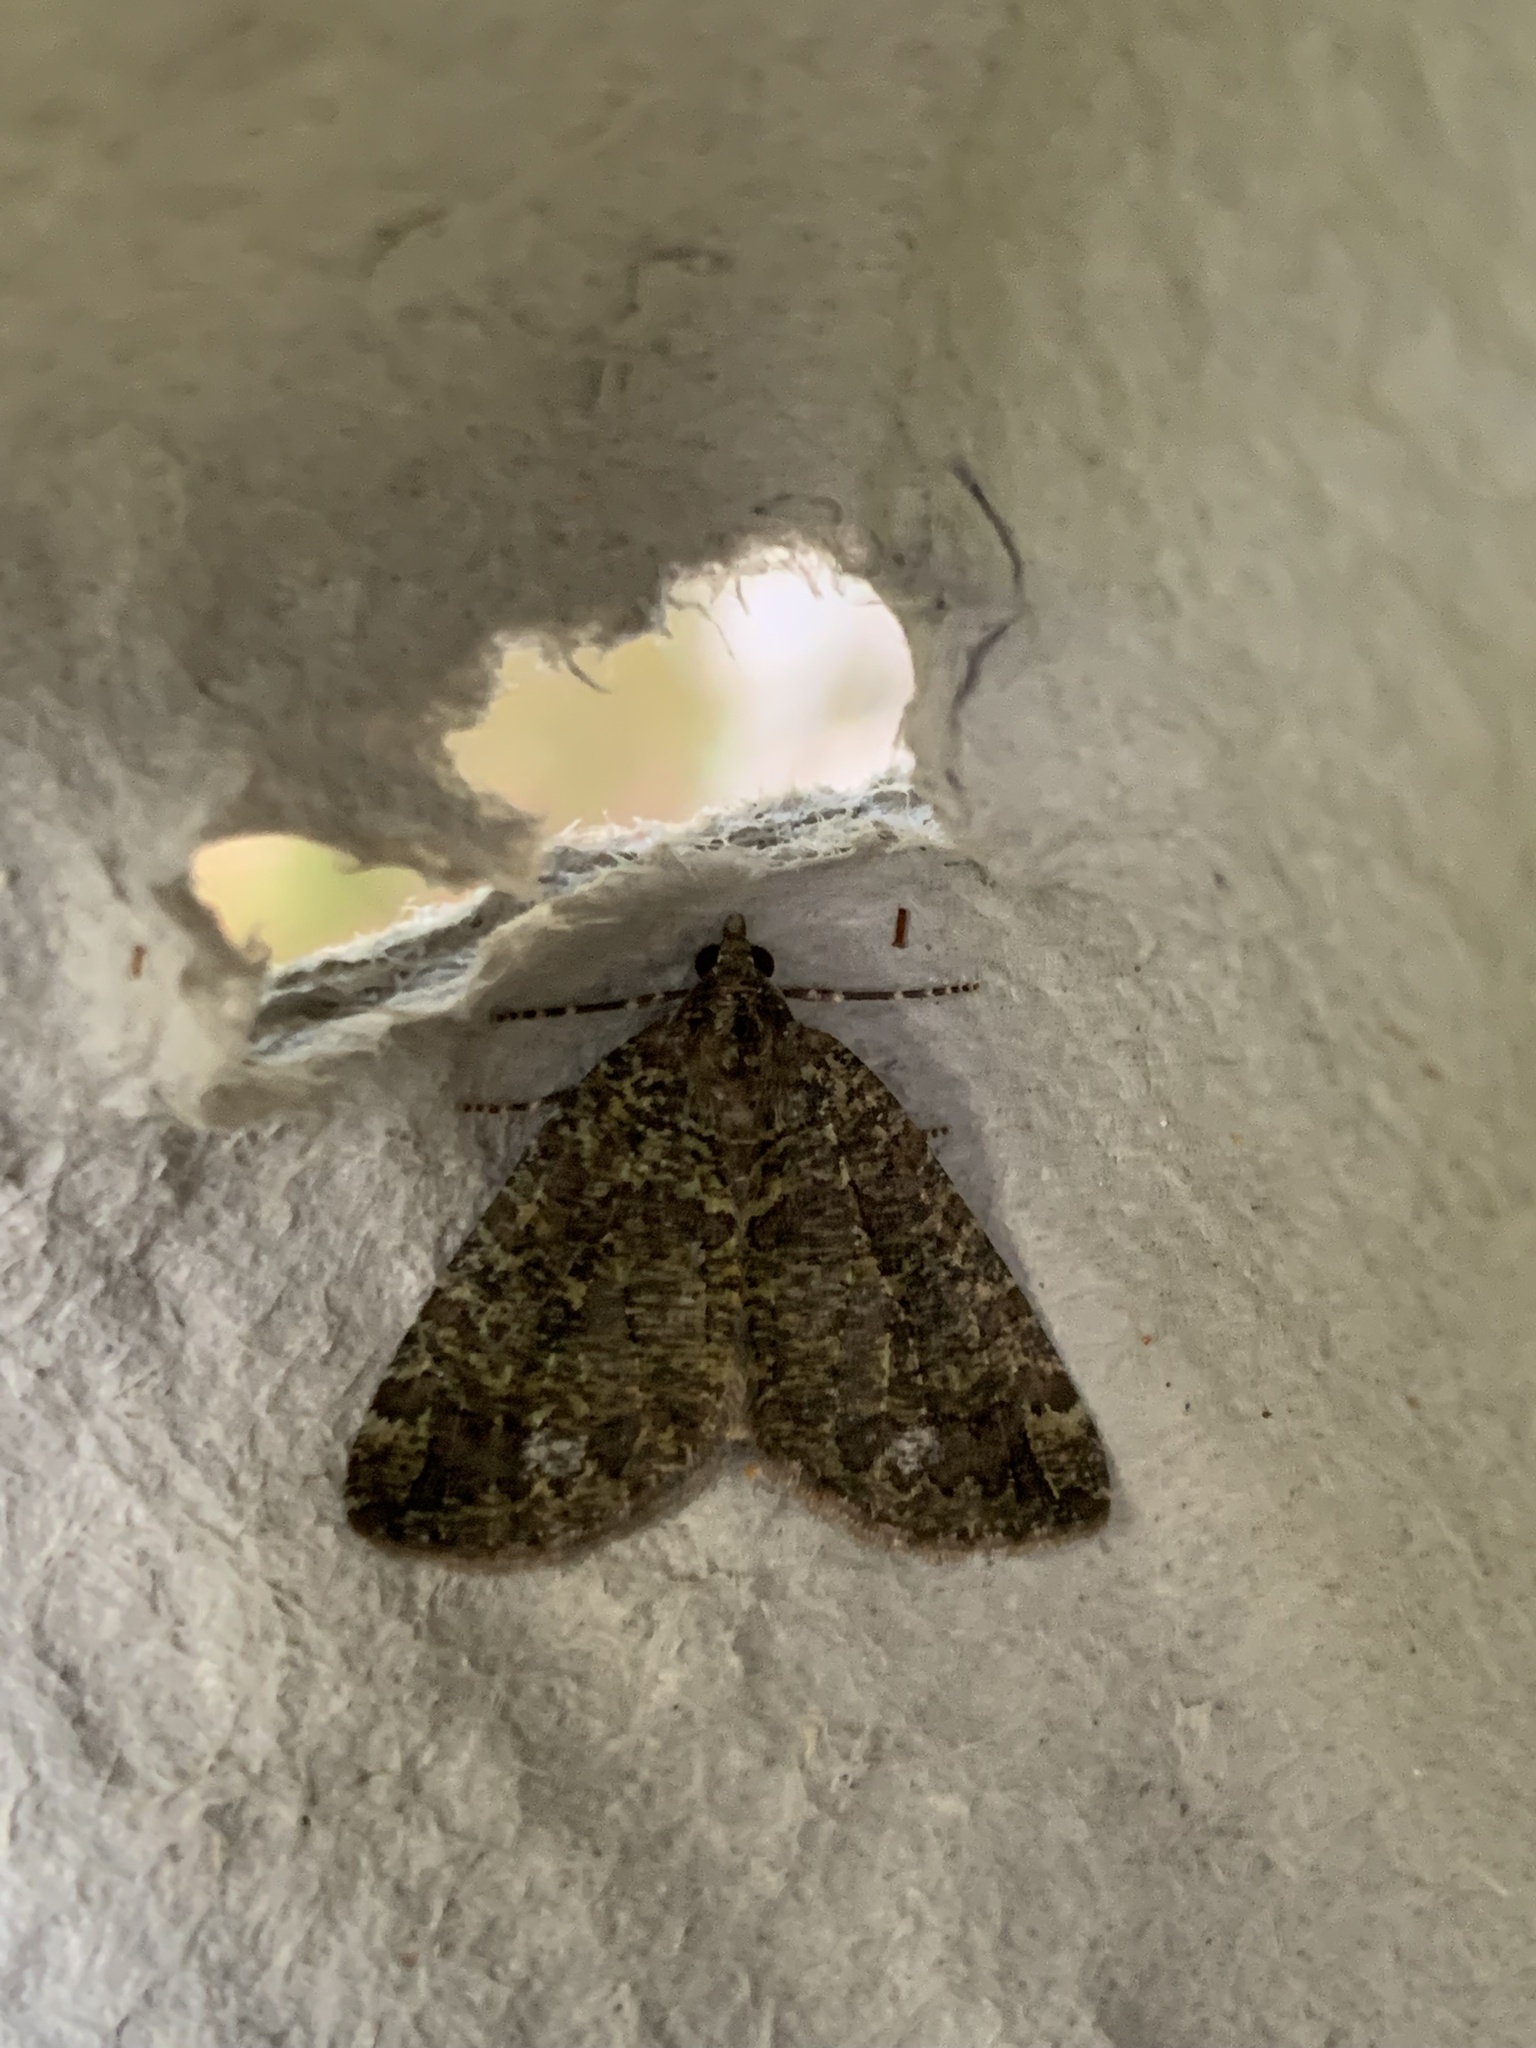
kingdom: Animalia
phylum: Arthropoda
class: Insecta
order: Lepidoptera
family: Geometridae
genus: Hydriomena
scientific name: Hydriomena furcata
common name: July highflyer
